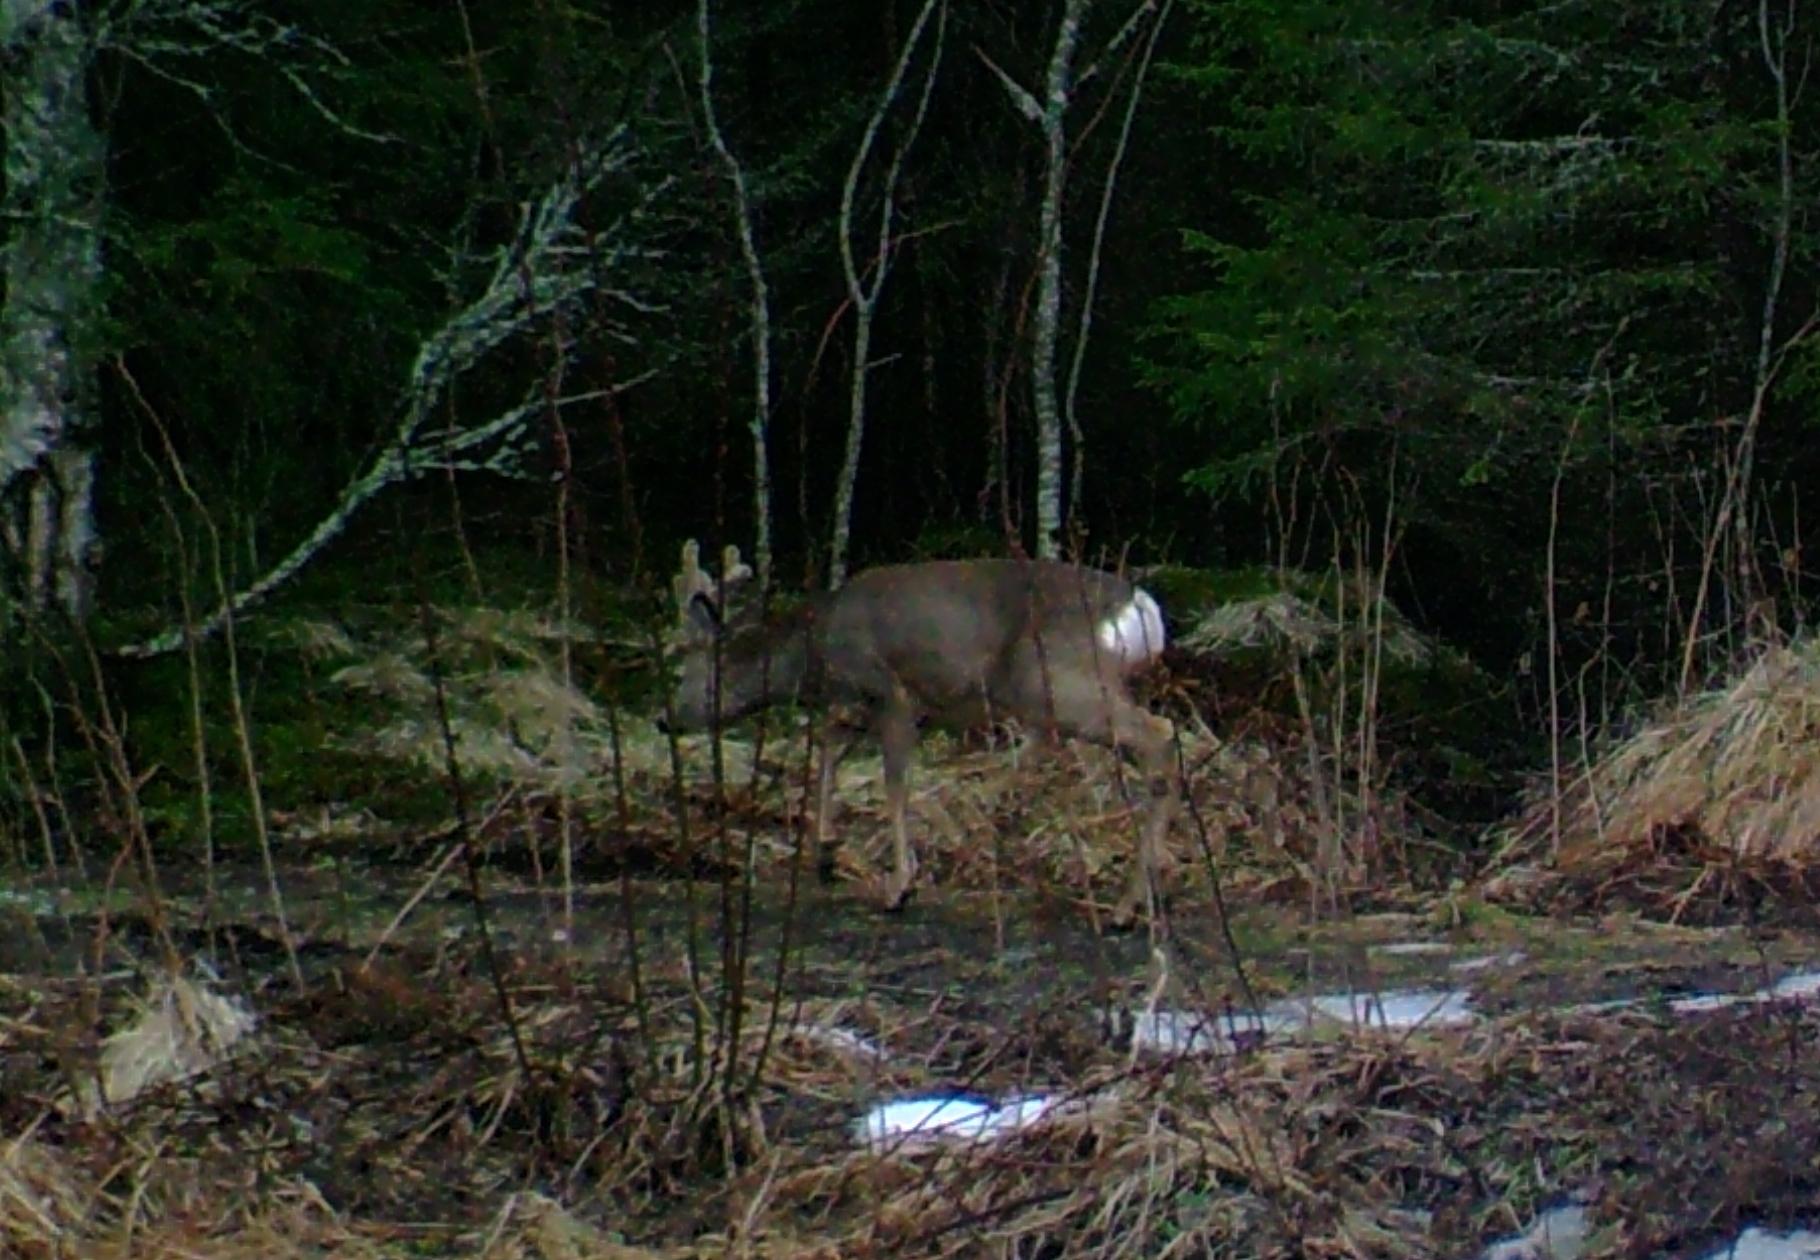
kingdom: Animalia
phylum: Chordata
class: Mammalia
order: Artiodactyla
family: Cervidae
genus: Capreolus
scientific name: Capreolus capreolus
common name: Western roe deer
